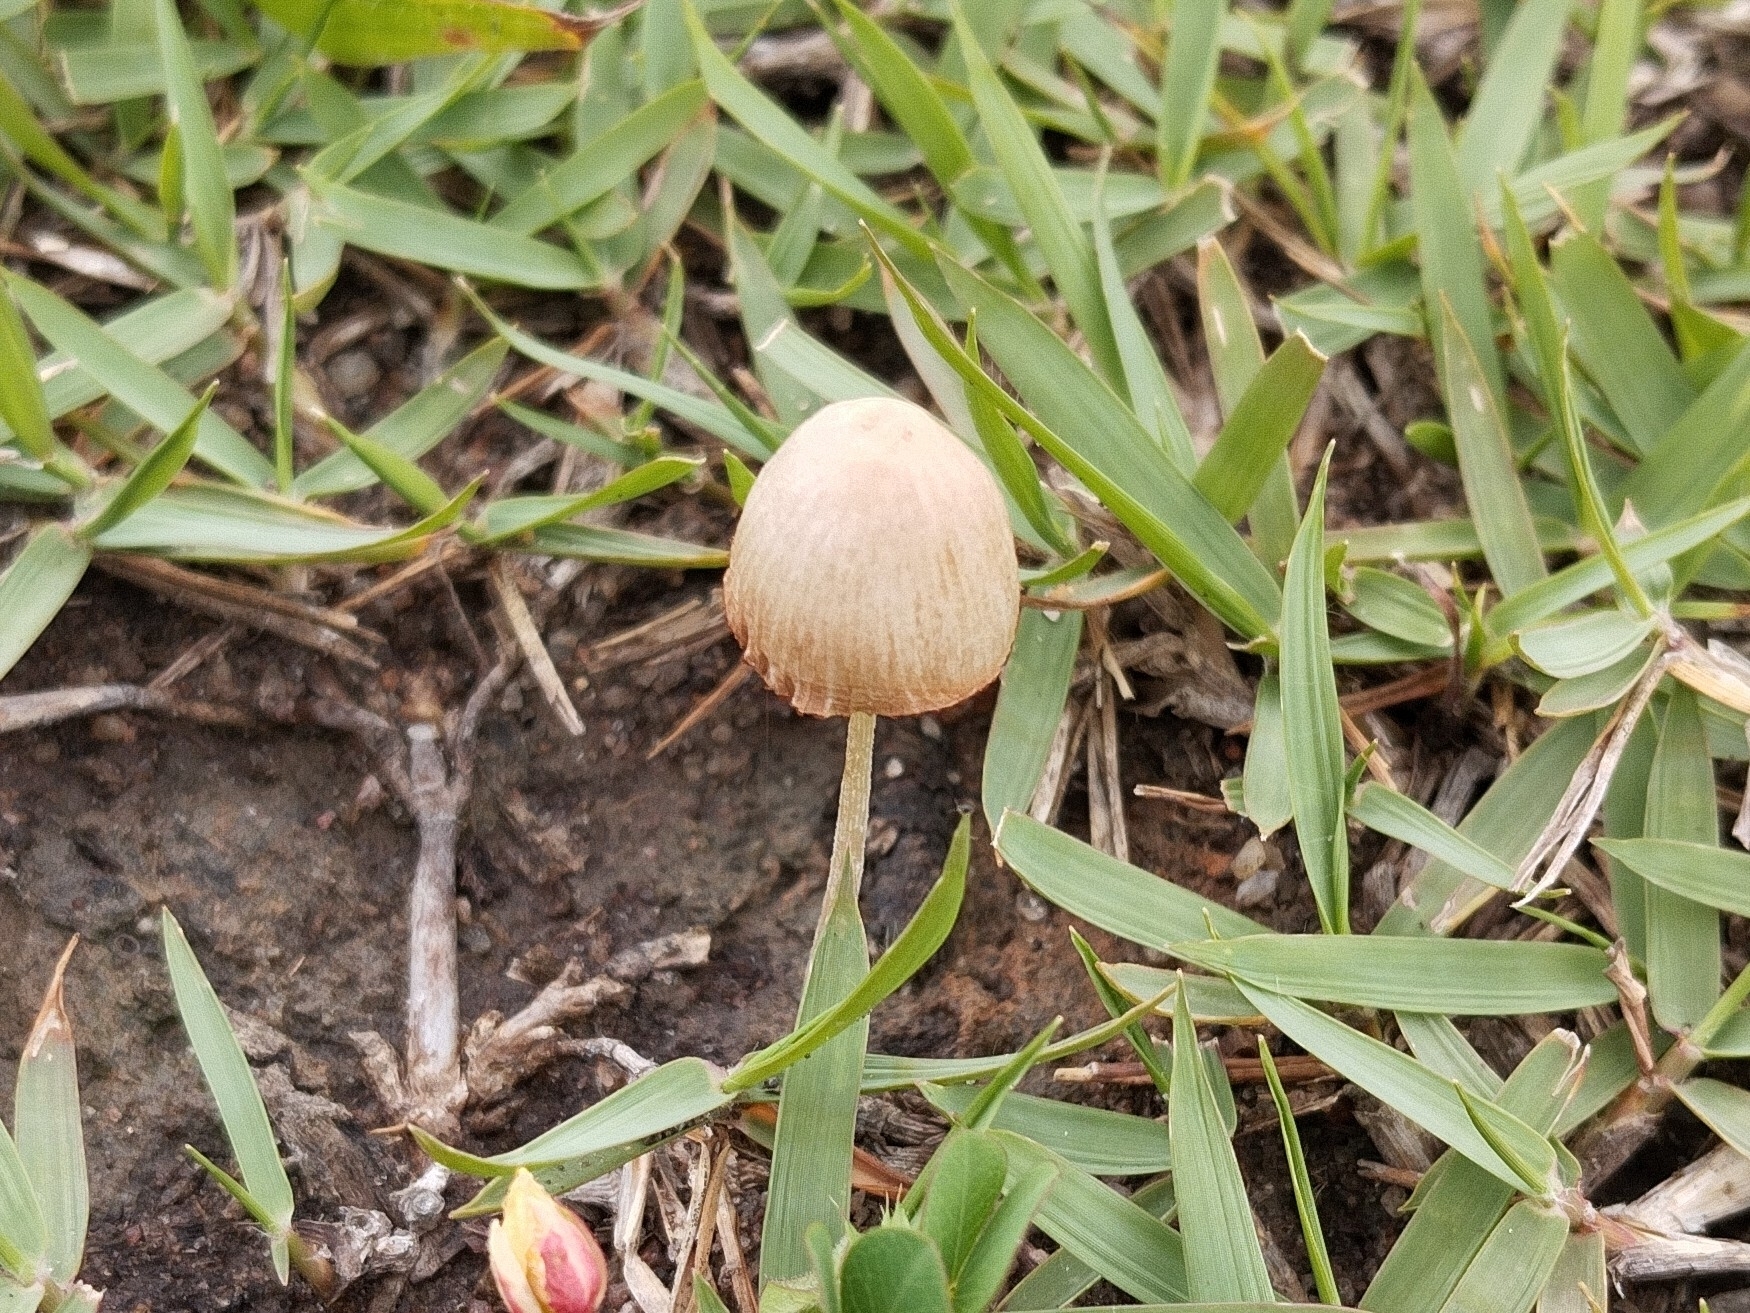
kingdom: Fungi
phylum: Basidiomycota
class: Agaricomycetes
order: Agaricales
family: Bolbitiaceae
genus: Conocybe
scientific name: Conocybe apala
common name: Milky conecap
